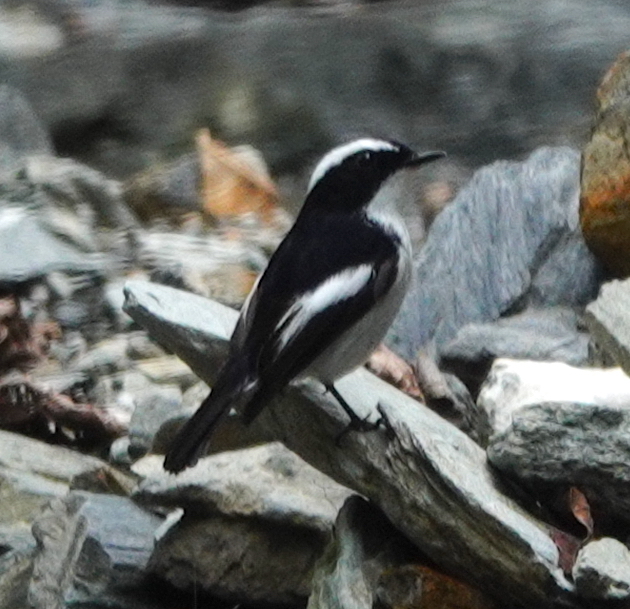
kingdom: Animalia
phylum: Chordata
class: Aves
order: Passeriformes
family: Muscicapidae
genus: Ficedula
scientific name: Ficedula westermanni
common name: Little pied flycatcher
